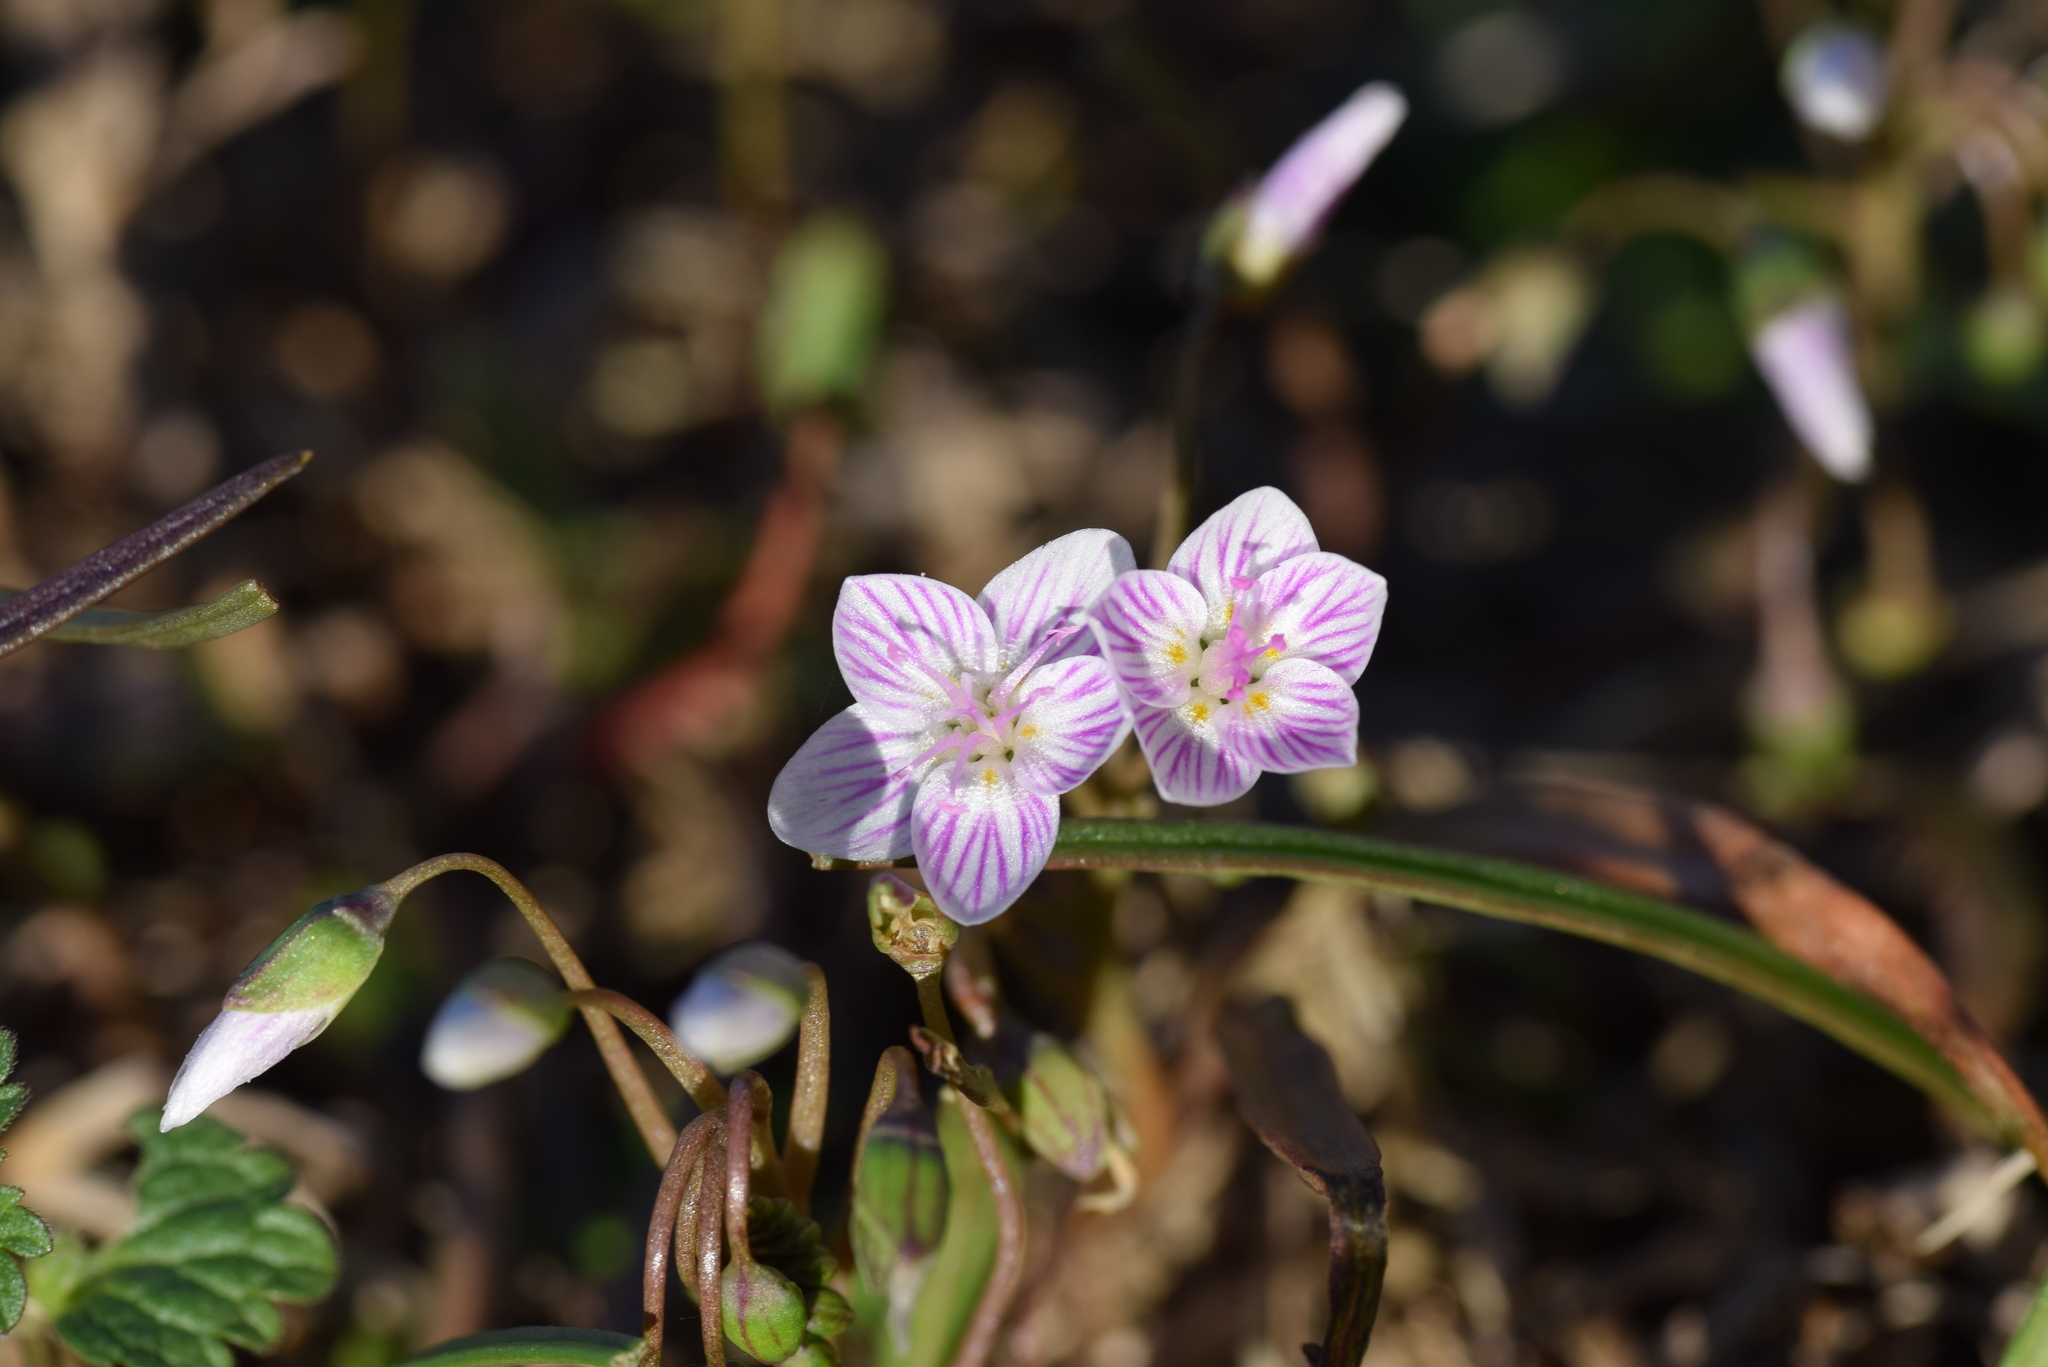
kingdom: Plantae
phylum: Tracheophyta
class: Magnoliopsida
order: Caryophyllales
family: Montiaceae
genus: Claytonia
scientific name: Claytonia virginica
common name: Virginia springbeauty
